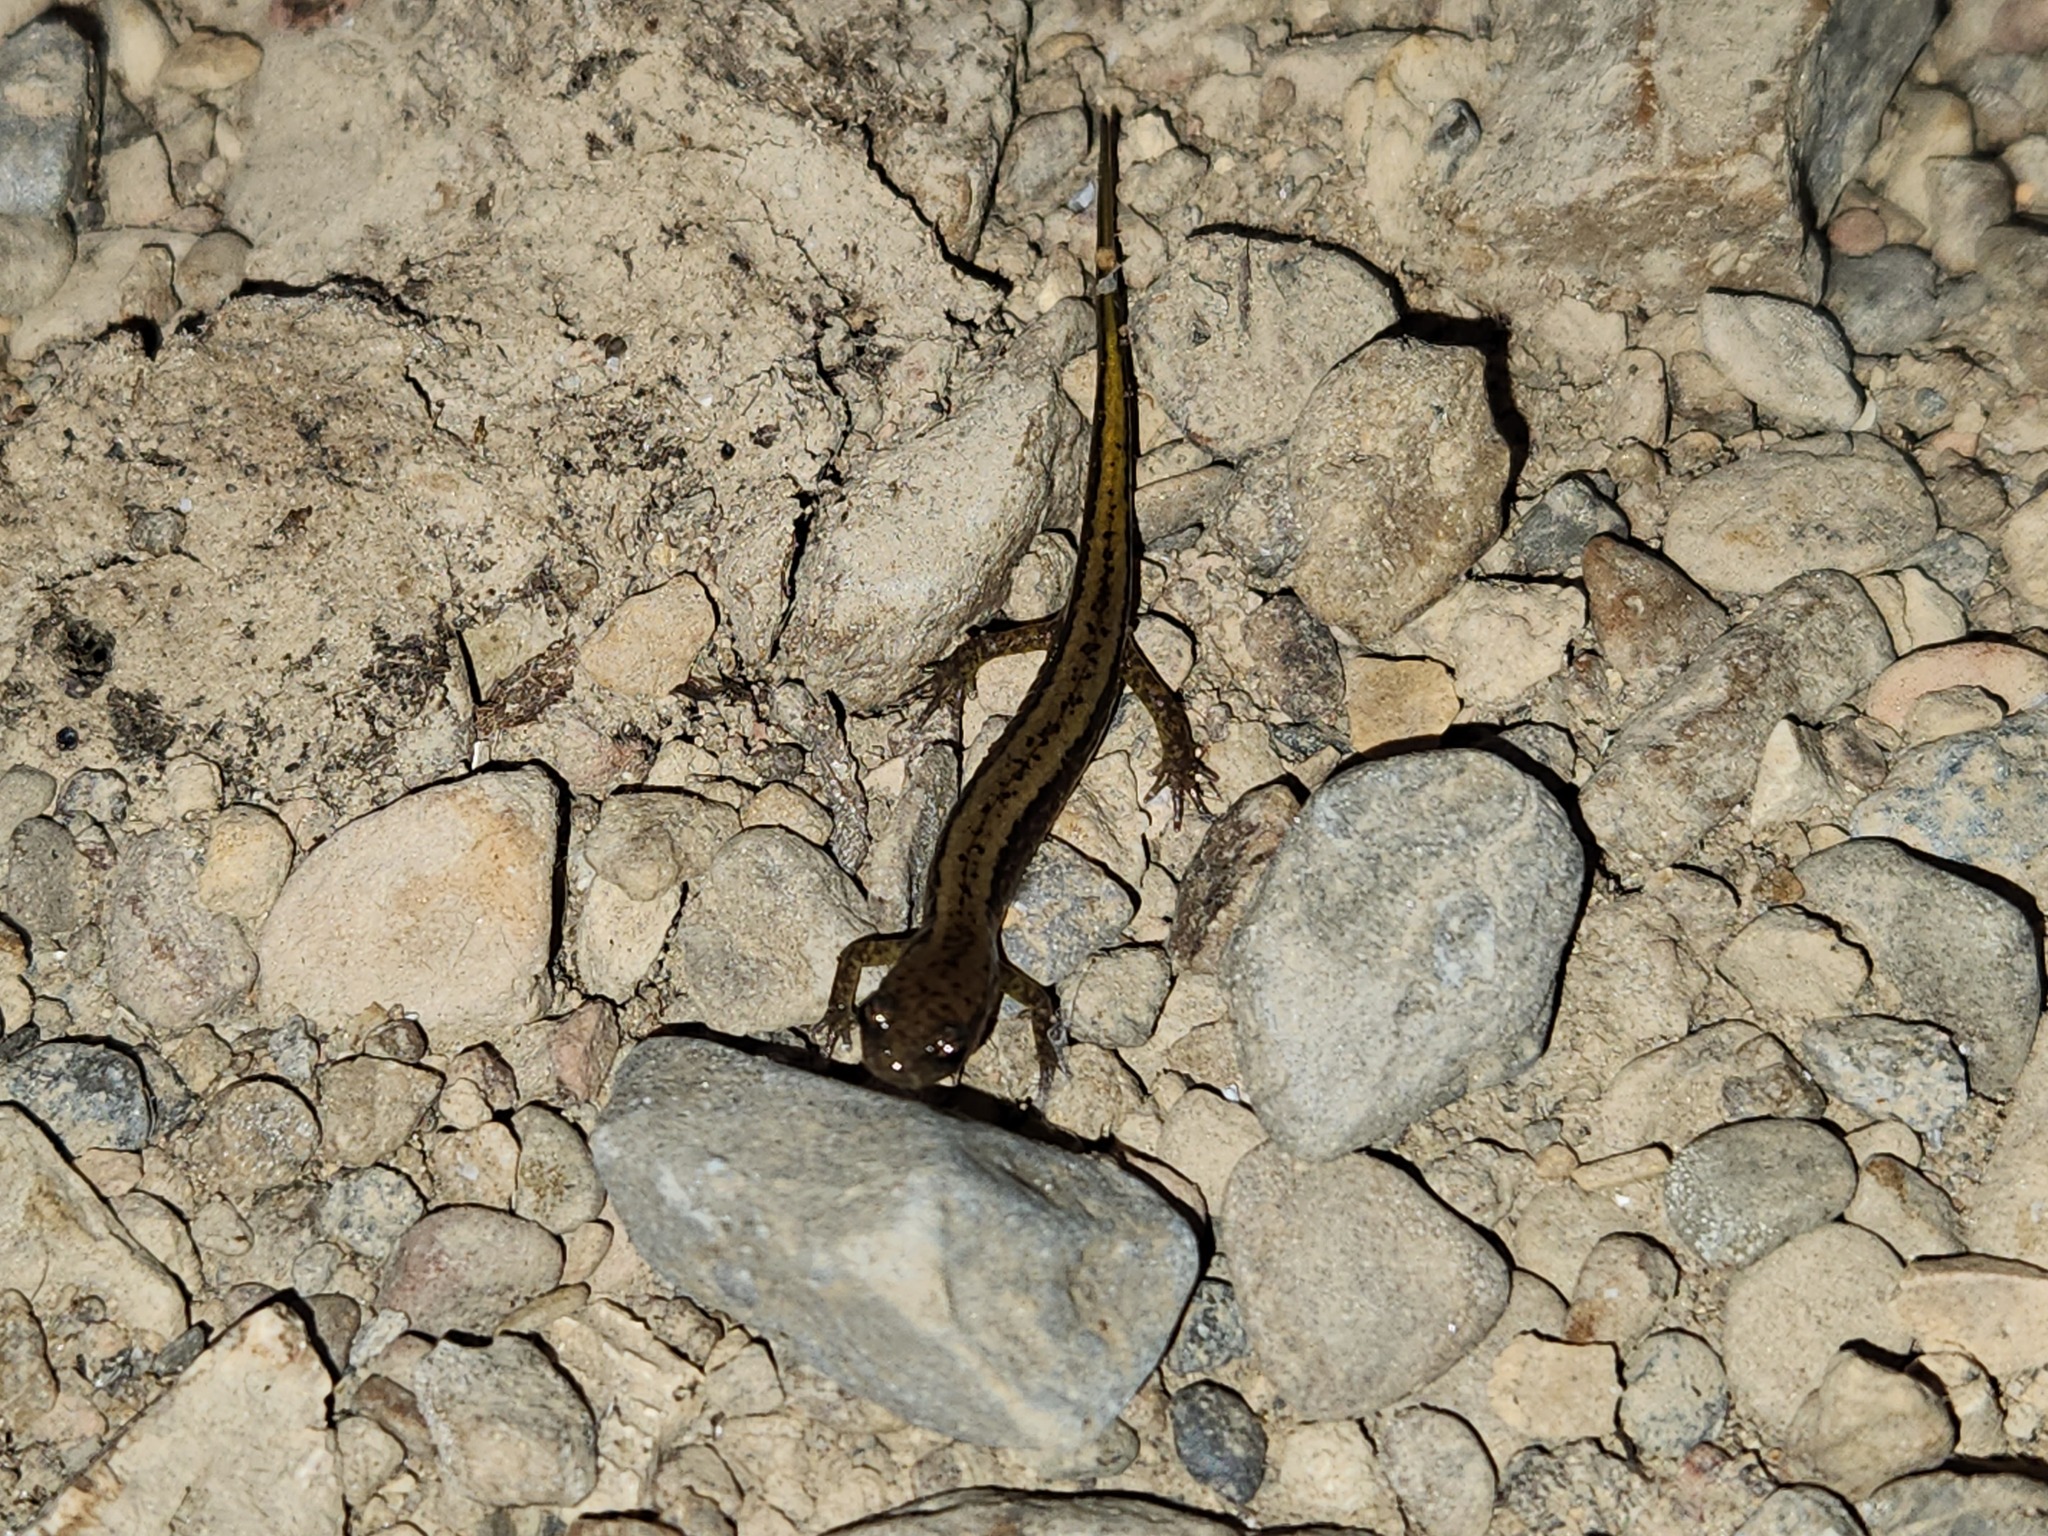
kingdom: Animalia
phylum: Chordata
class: Amphibia
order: Caudata
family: Plethodontidae
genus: Eurycea
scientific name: Eurycea cirrigera
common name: Southern two-lined salamander
